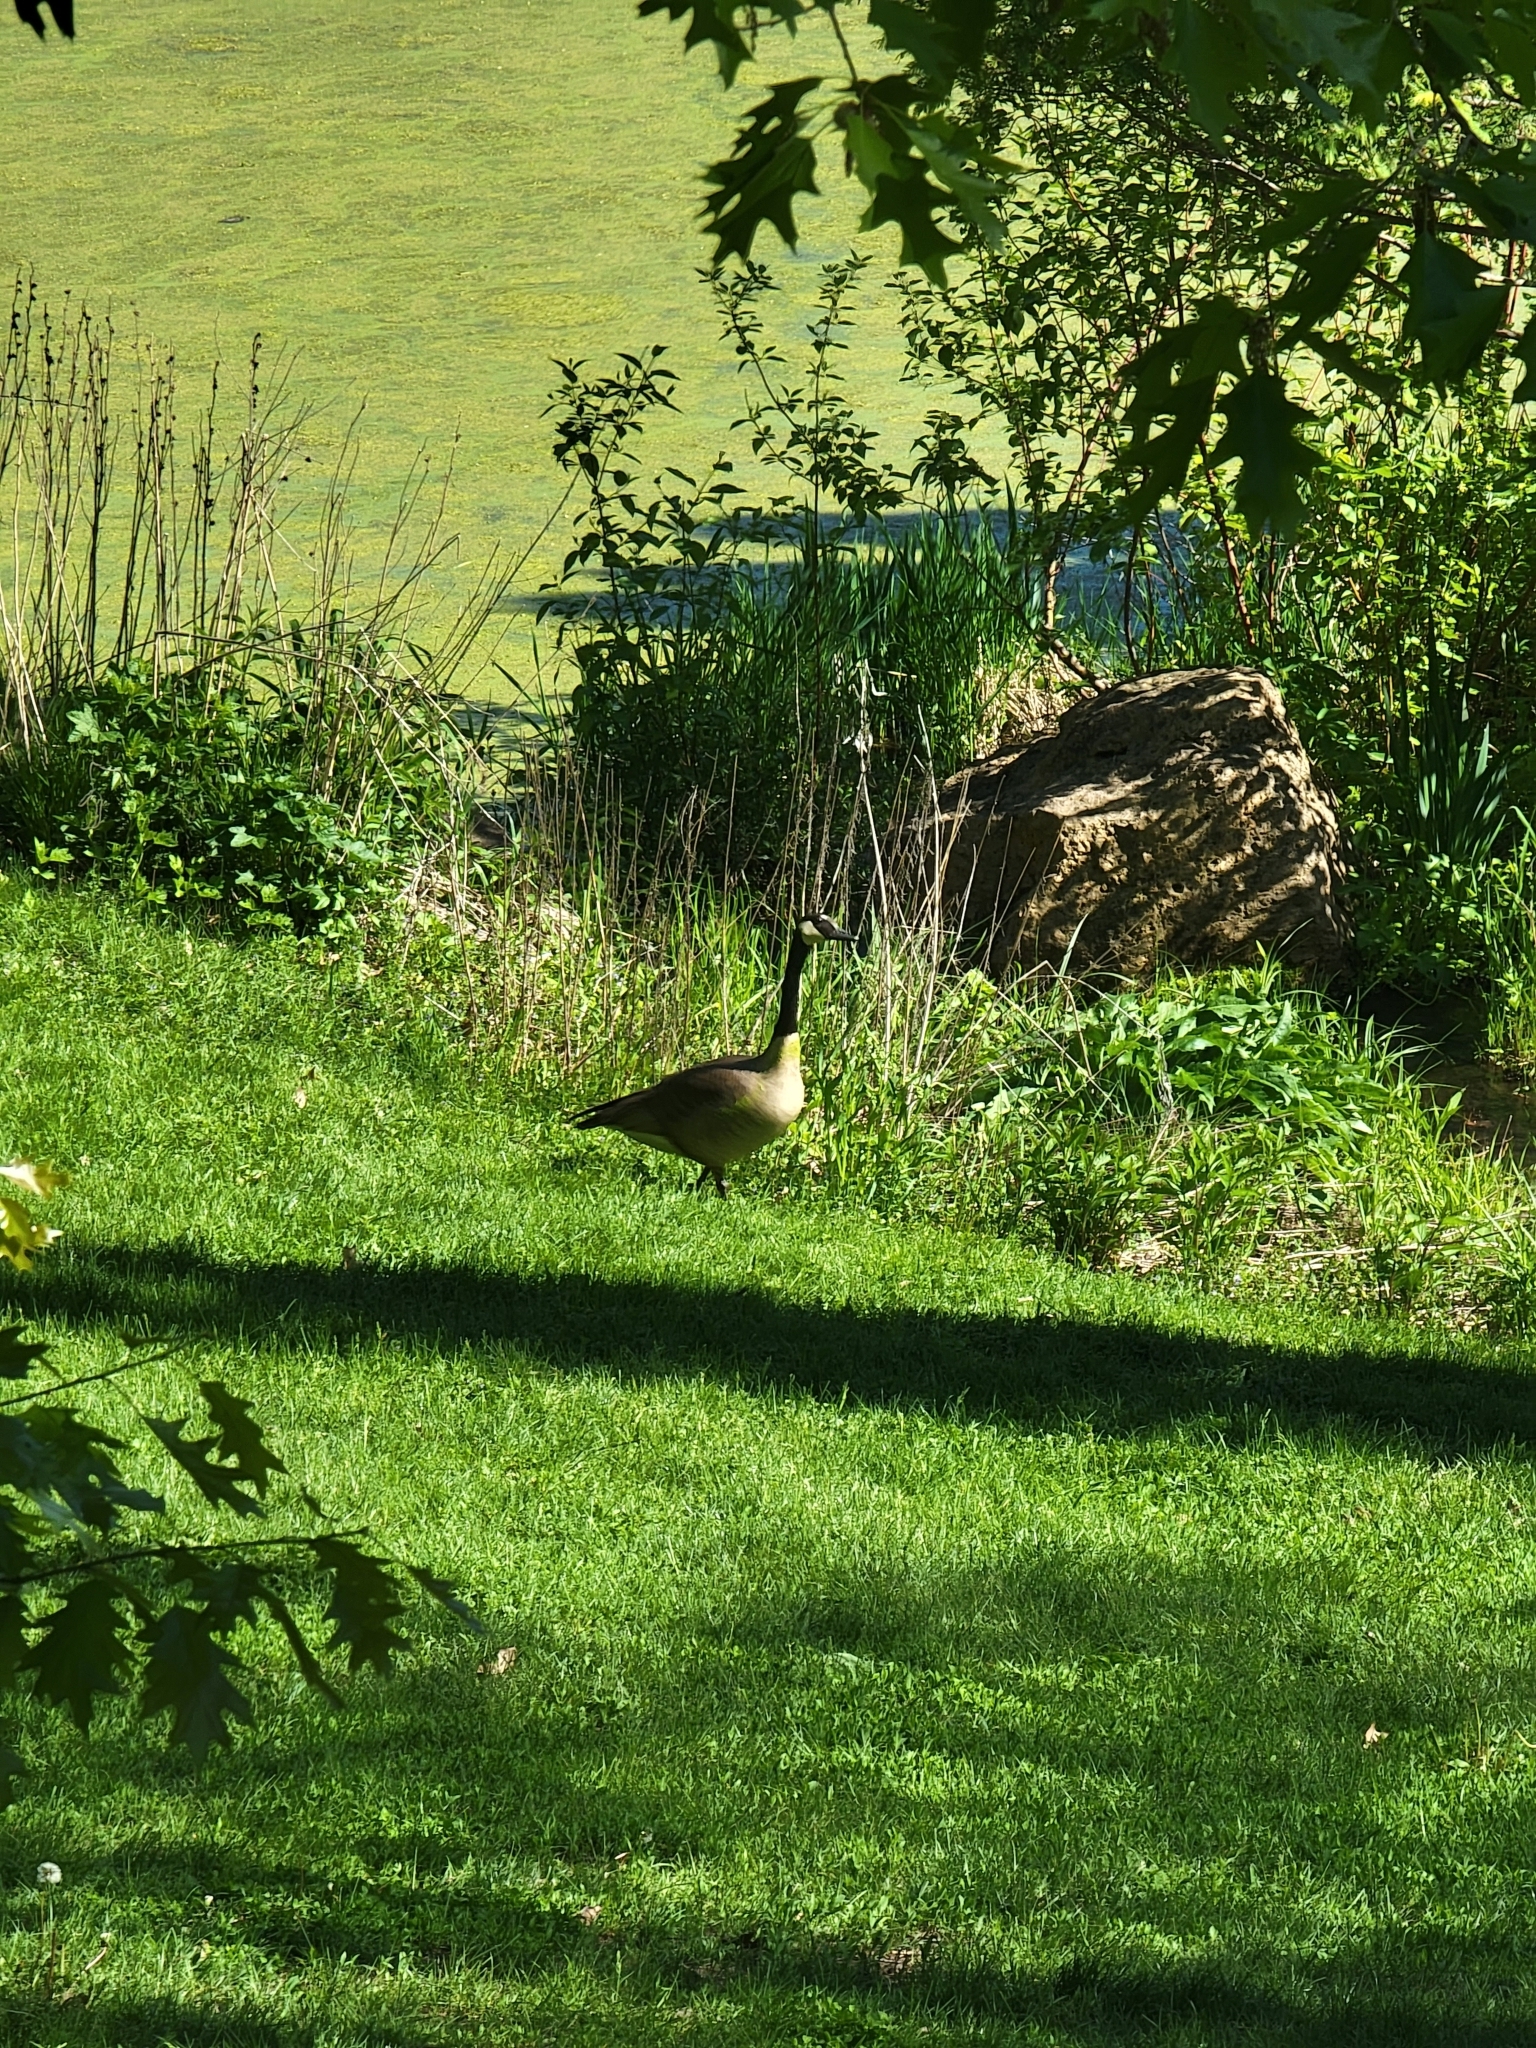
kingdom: Animalia
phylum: Chordata
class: Aves
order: Anseriformes
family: Anatidae
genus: Branta
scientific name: Branta canadensis
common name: Canada goose
